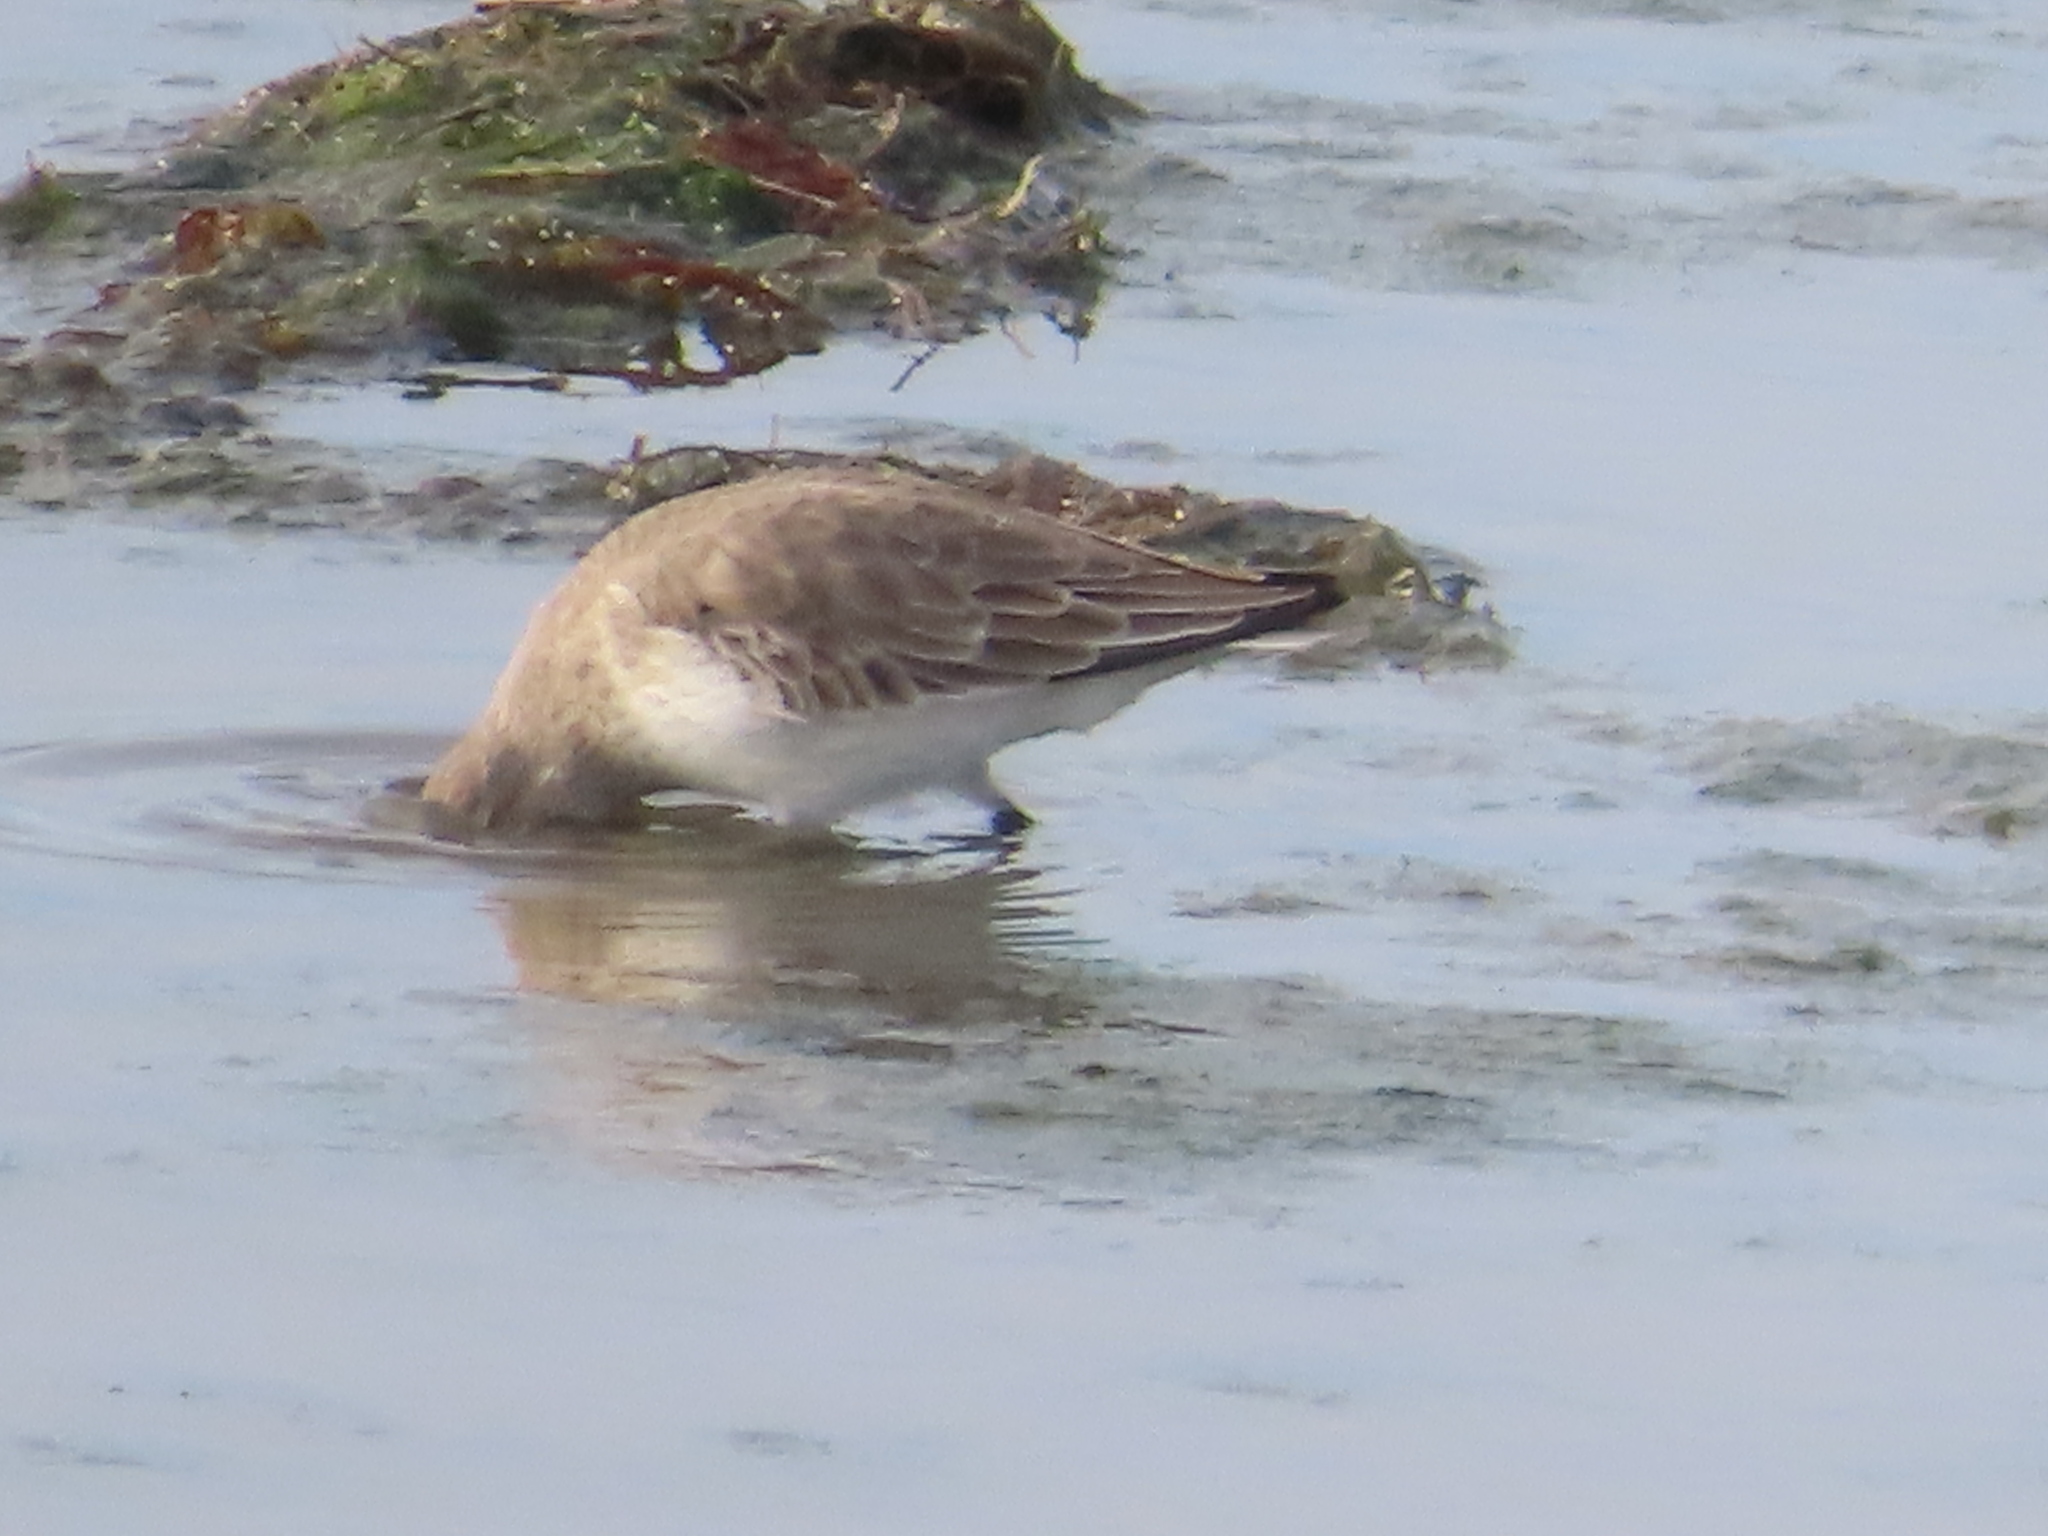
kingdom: Animalia
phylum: Chordata
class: Aves
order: Charadriiformes
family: Scolopacidae
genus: Calidris
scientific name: Calidris alpina
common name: Dunlin
